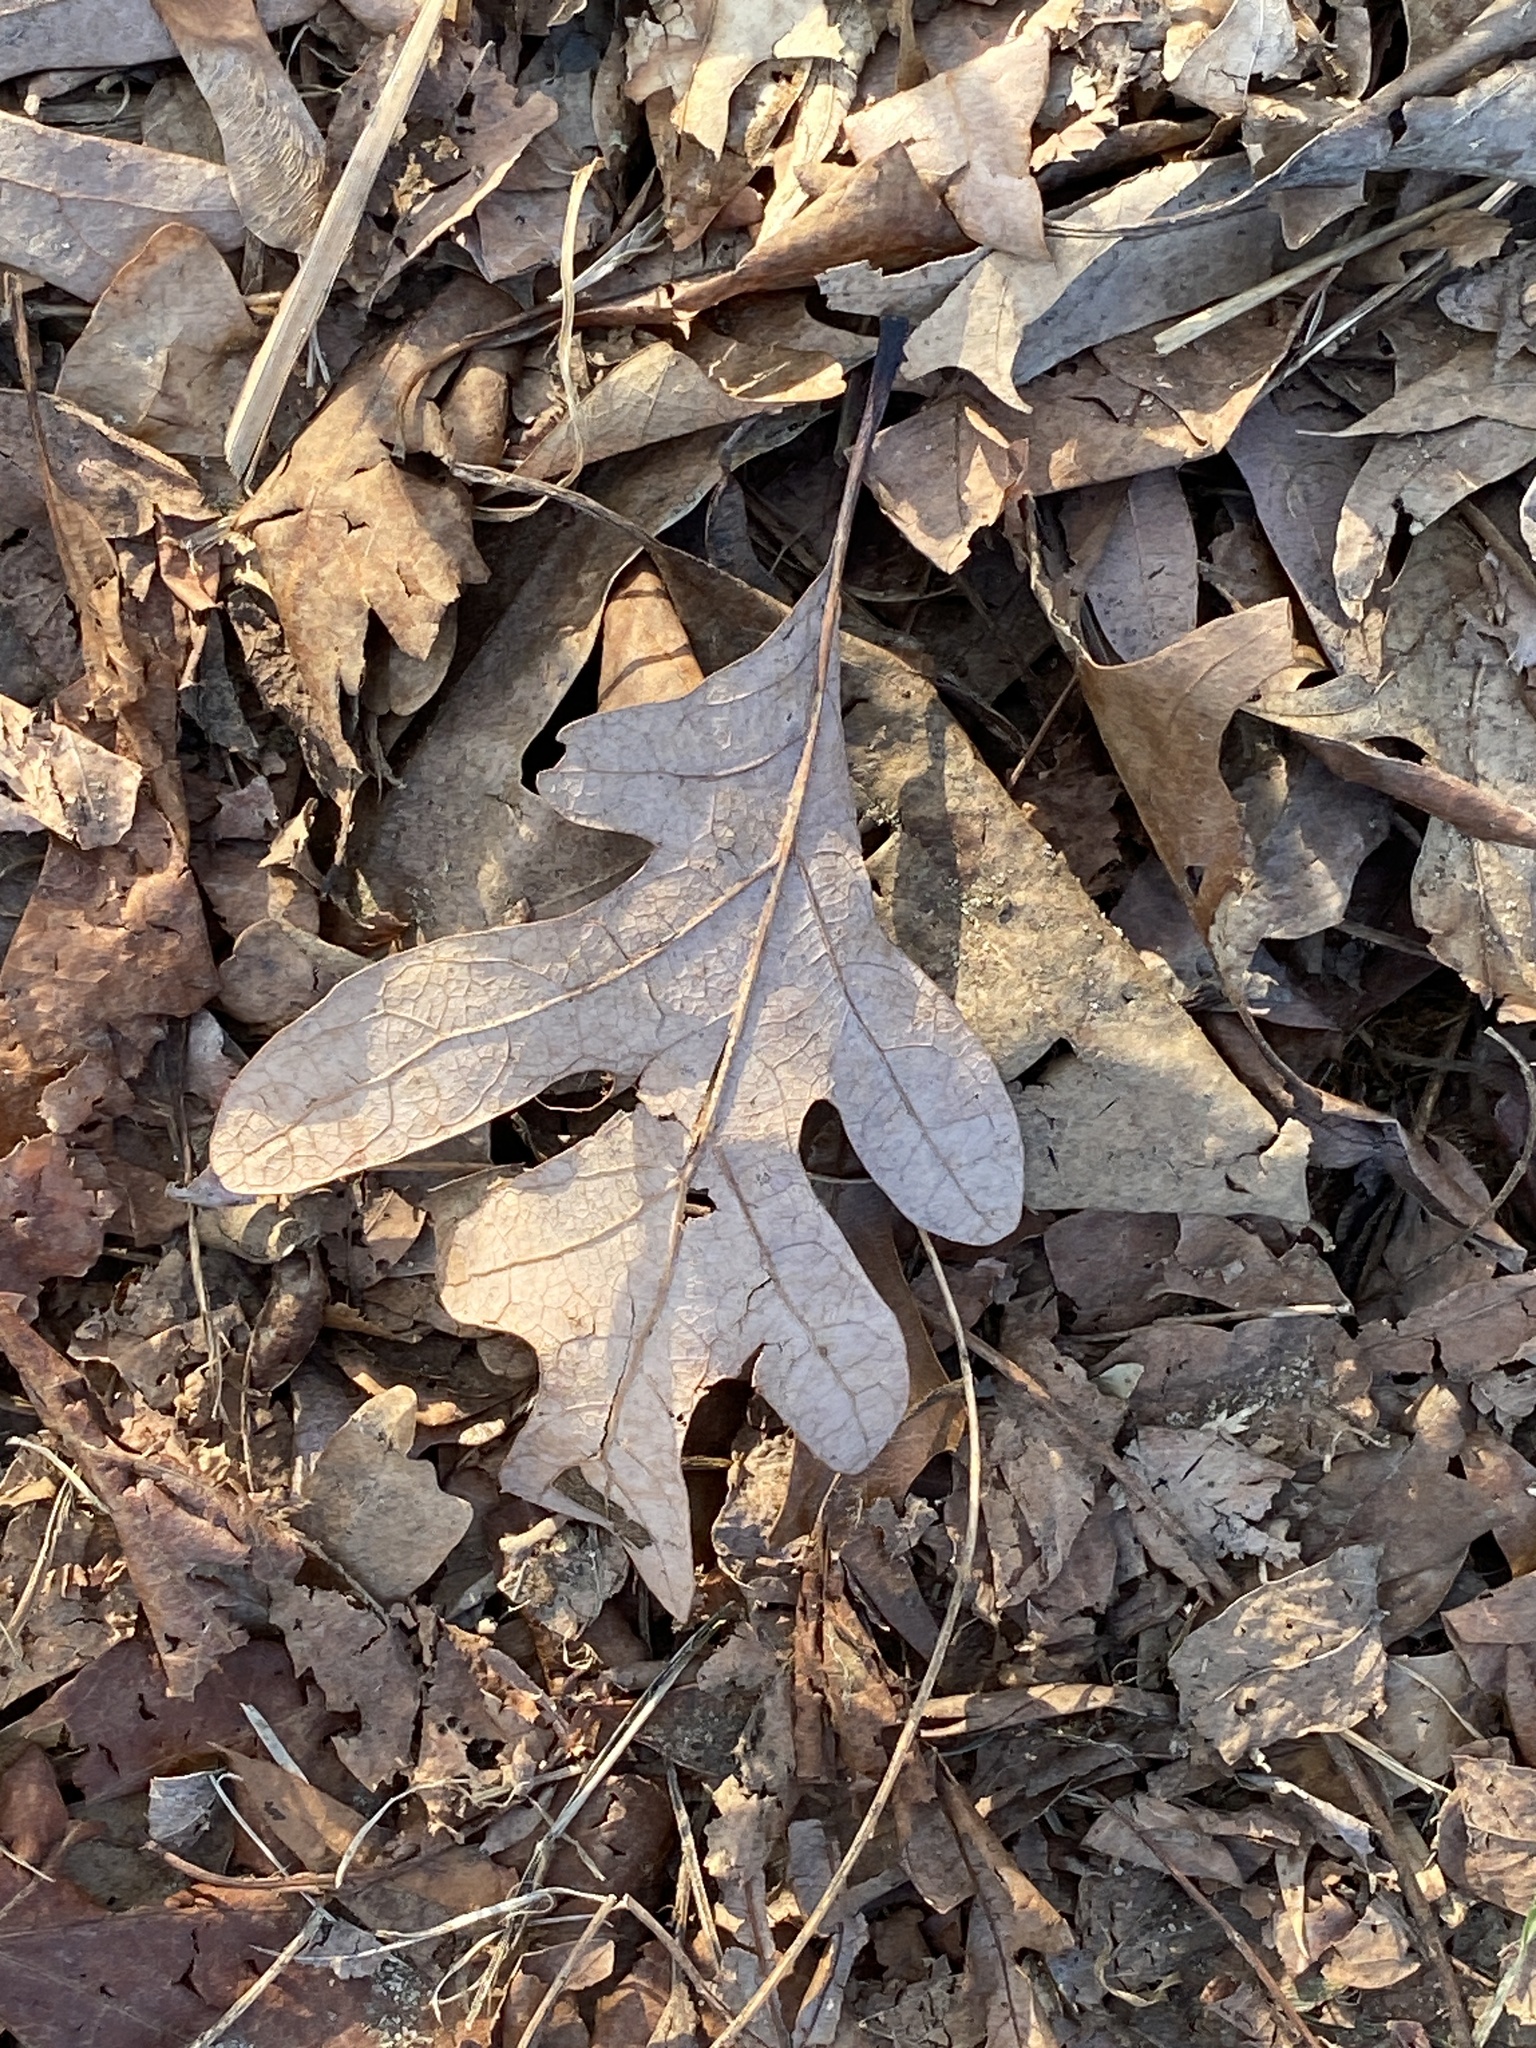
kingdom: Plantae
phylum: Tracheophyta
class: Magnoliopsida
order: Fagales
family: Fagaceae
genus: Quercus
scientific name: Quercus alba
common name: White oak
